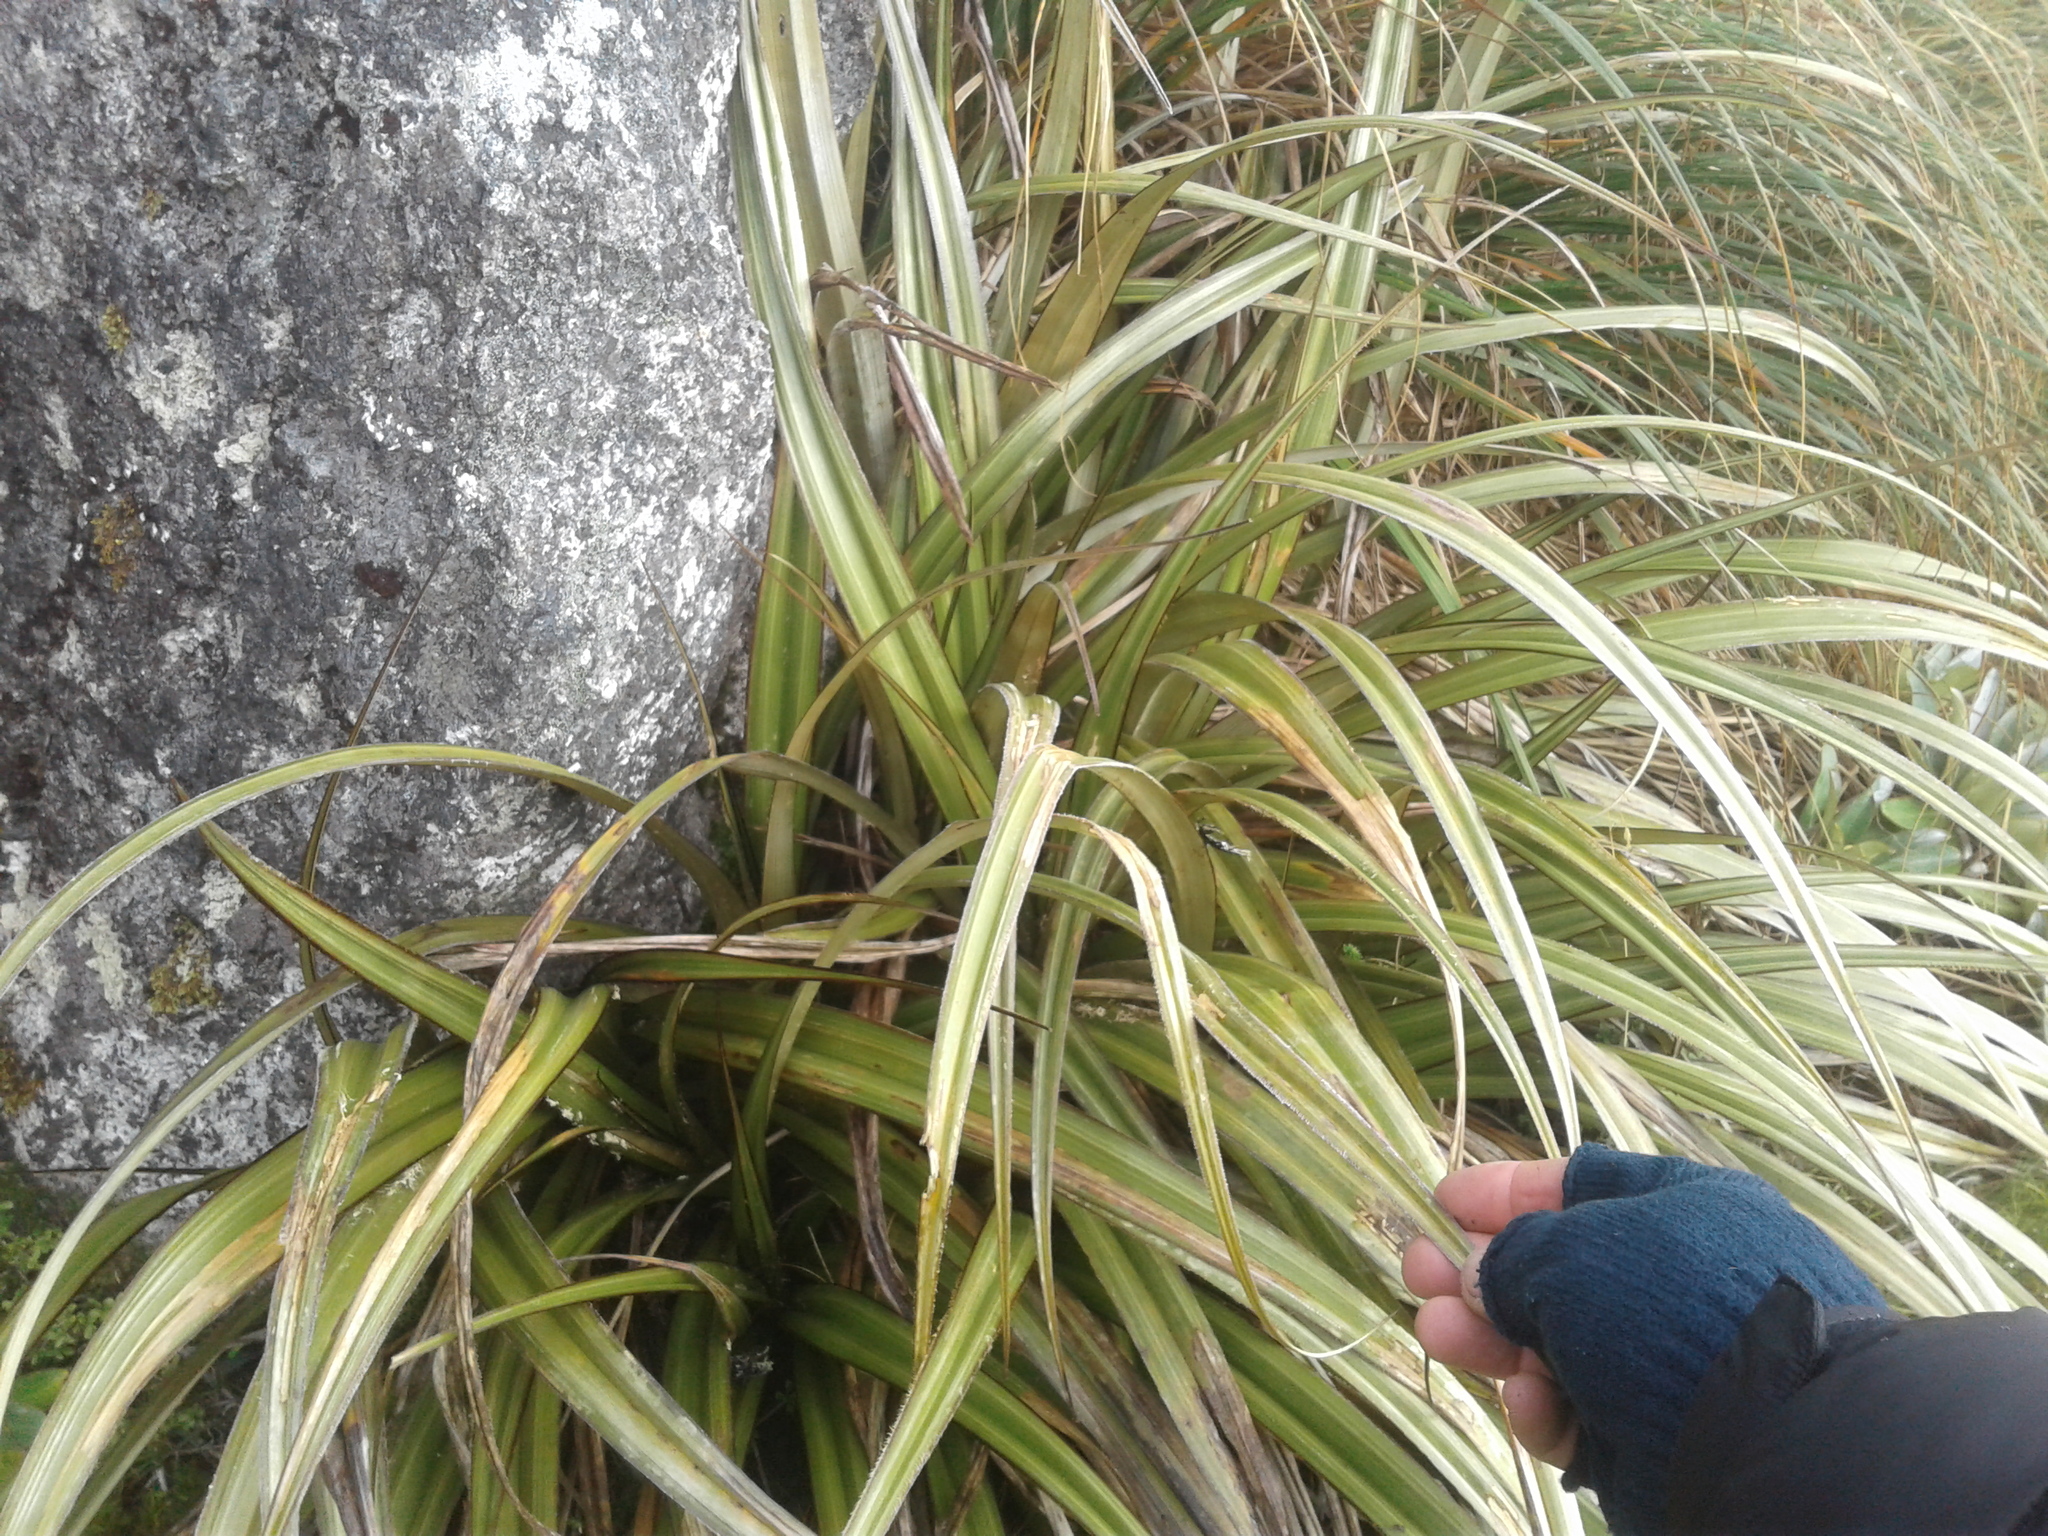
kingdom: Plantae
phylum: Tracheophyta
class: Liliopsida
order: Asparagales
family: Asteliaceae
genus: Astelia
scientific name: Astelia nervosa
